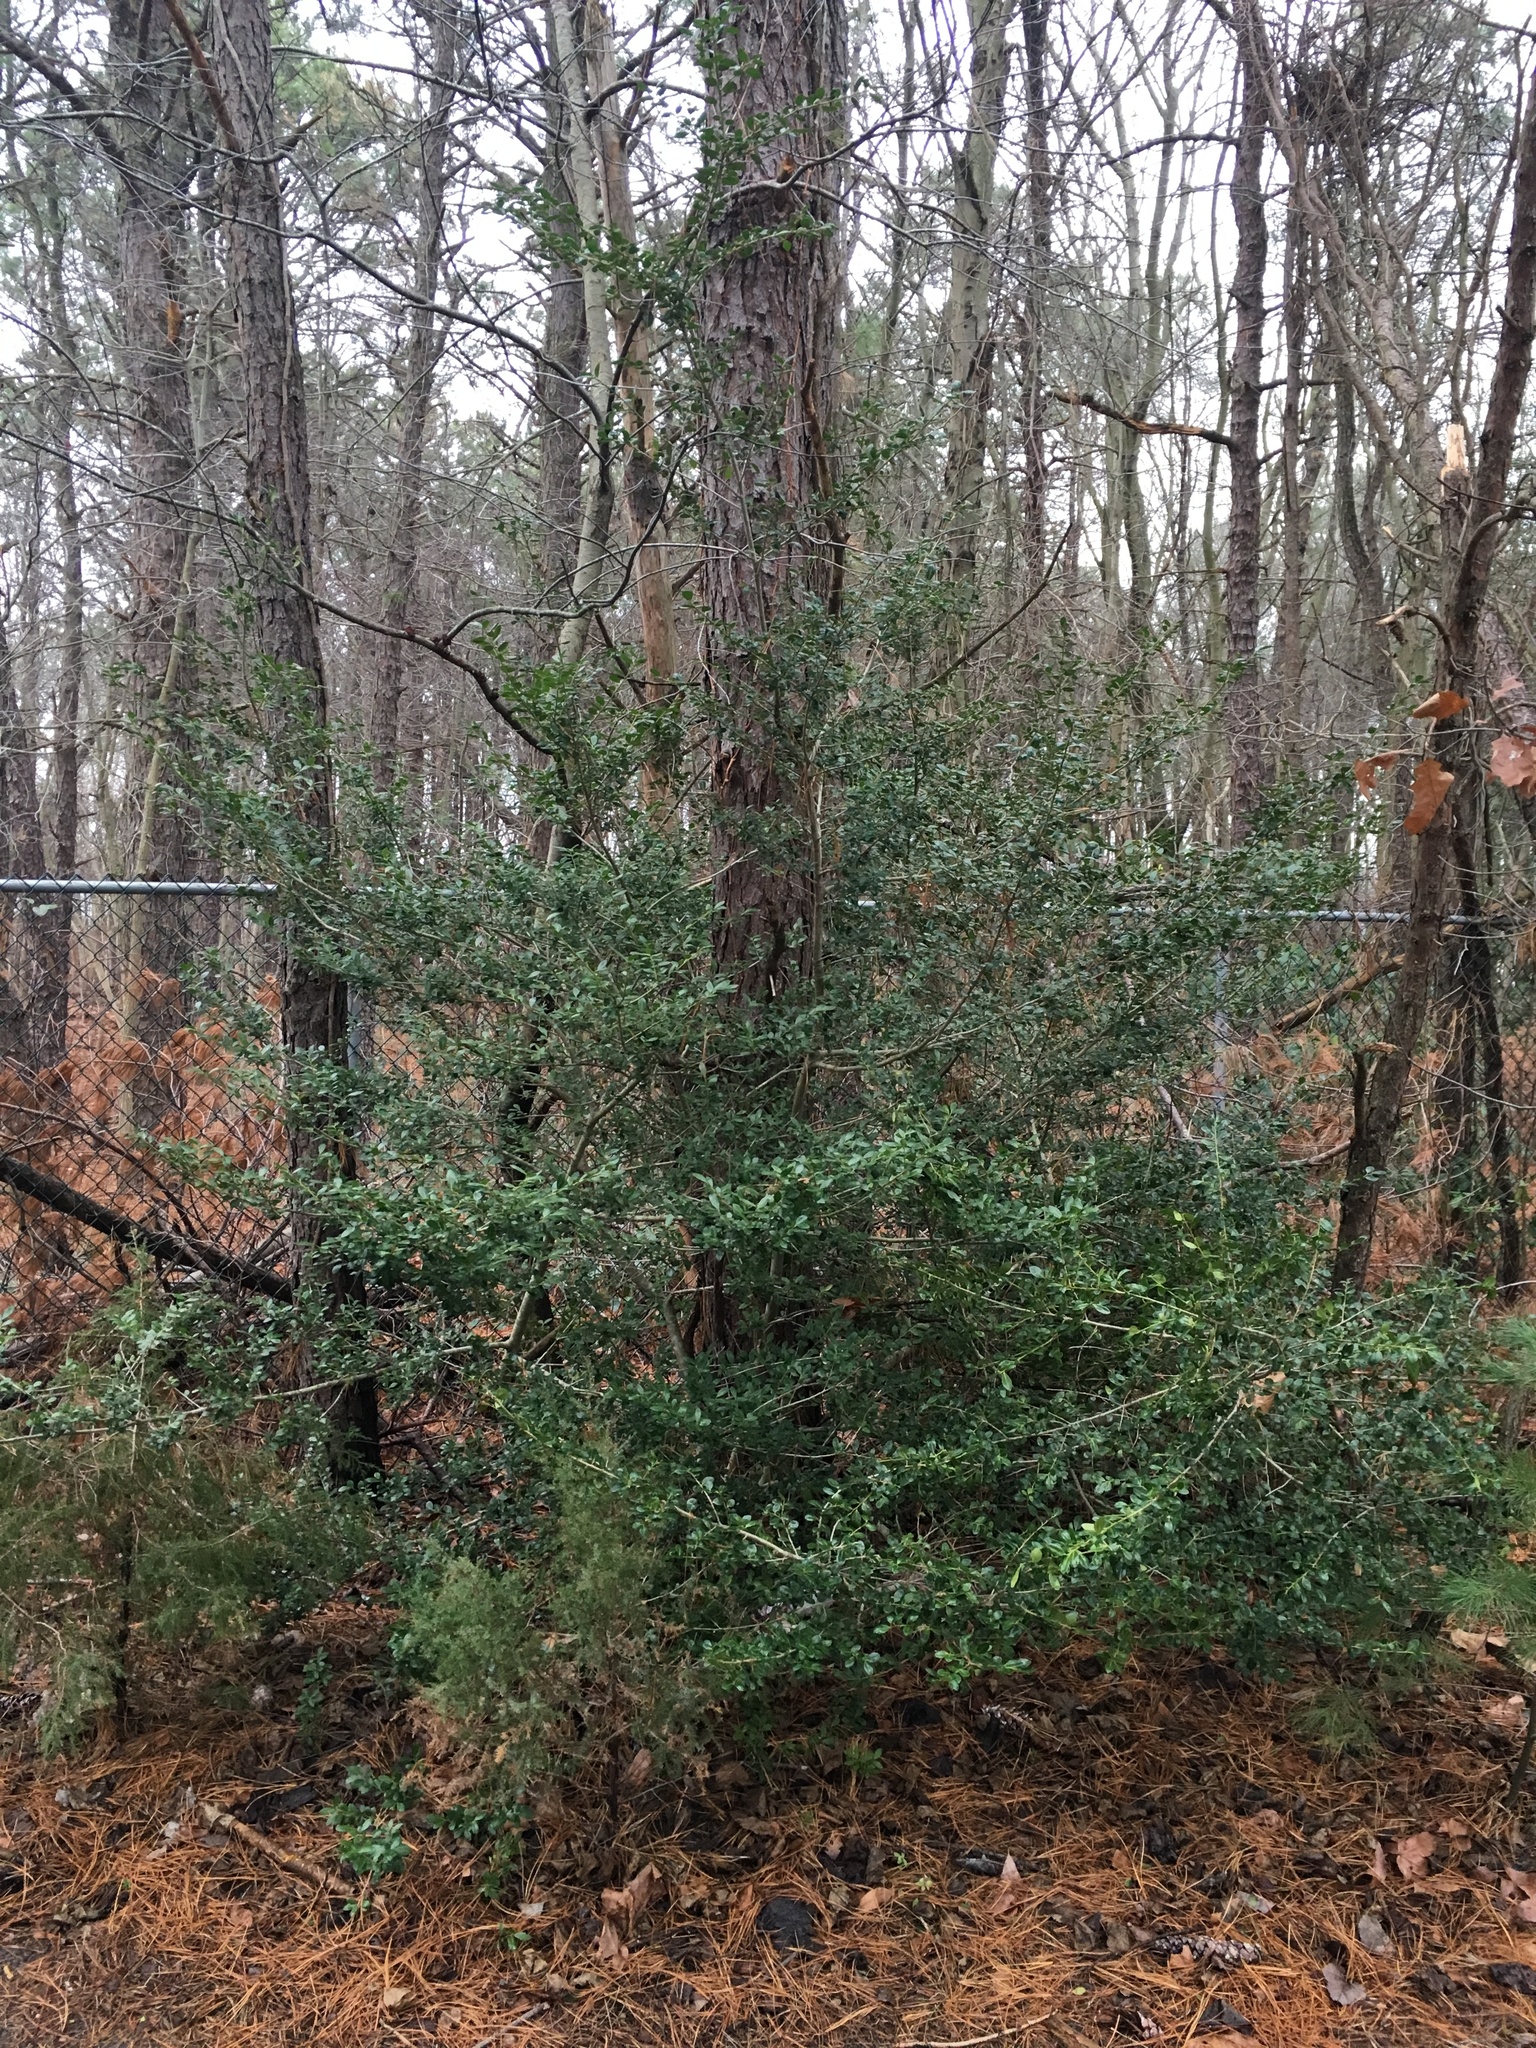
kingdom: Plantae
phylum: Tracheophyta
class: Magnoliopsida
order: Aquifoliales
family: Aquifoliaceae
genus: Ilex
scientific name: Ilex crenata
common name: Japanese holly
